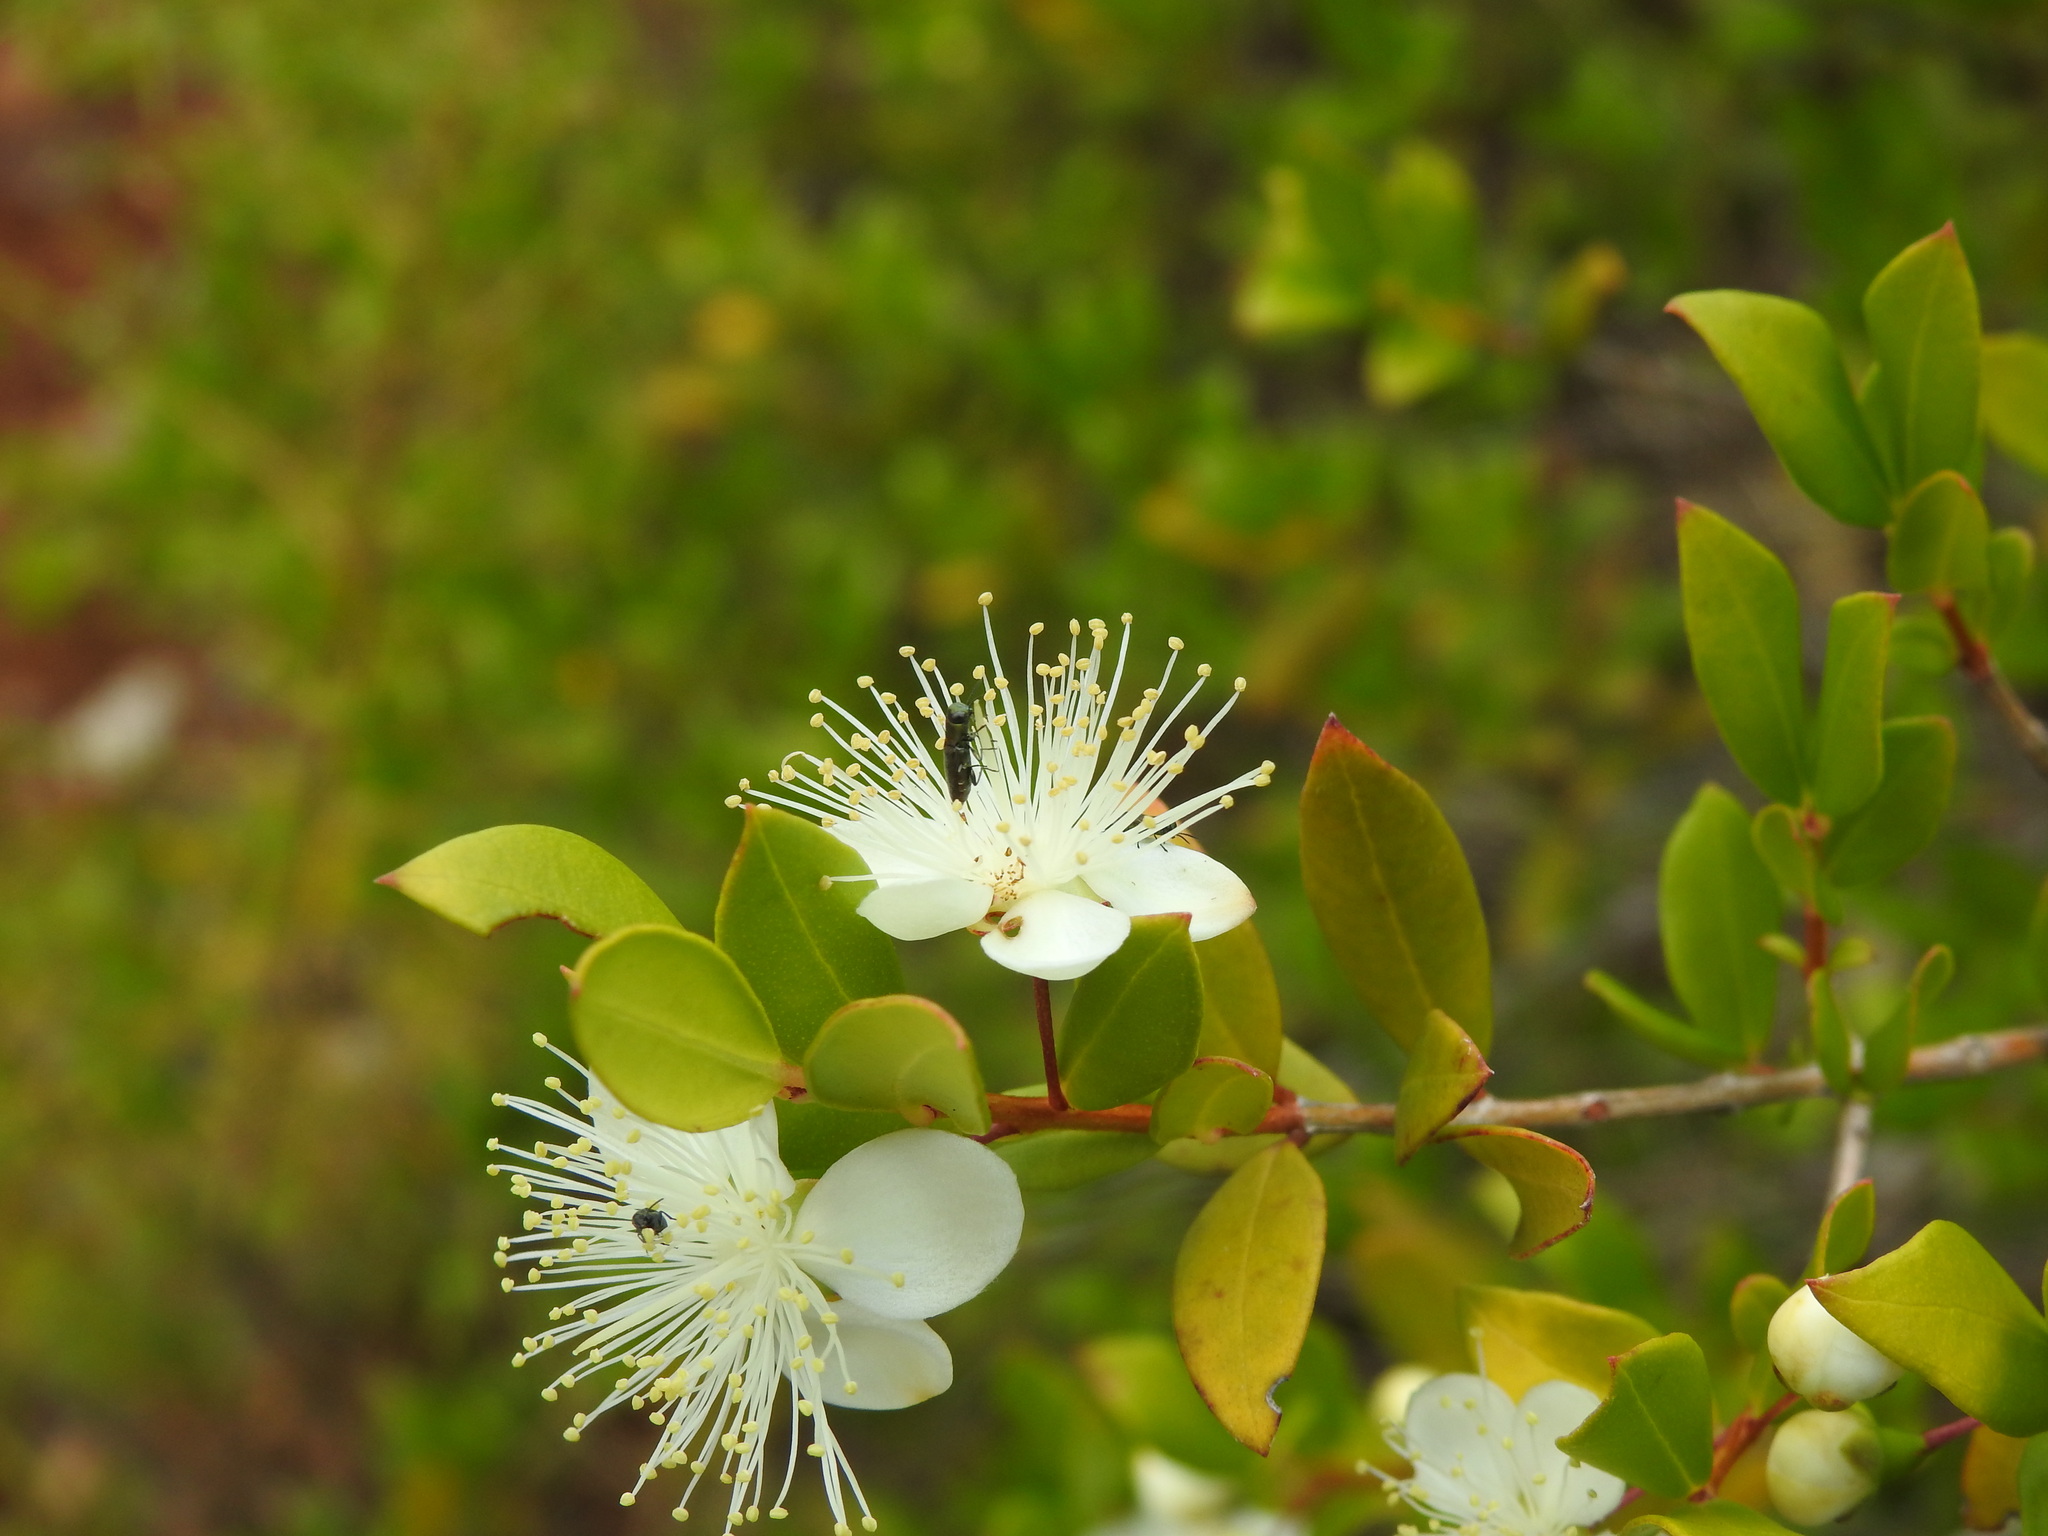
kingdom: Plantae
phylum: Tracheophyta
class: Magnoliopsida
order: Myrtales
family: Myrtaceae
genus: Myrtus
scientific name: Myrtus communis
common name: Myrtle
